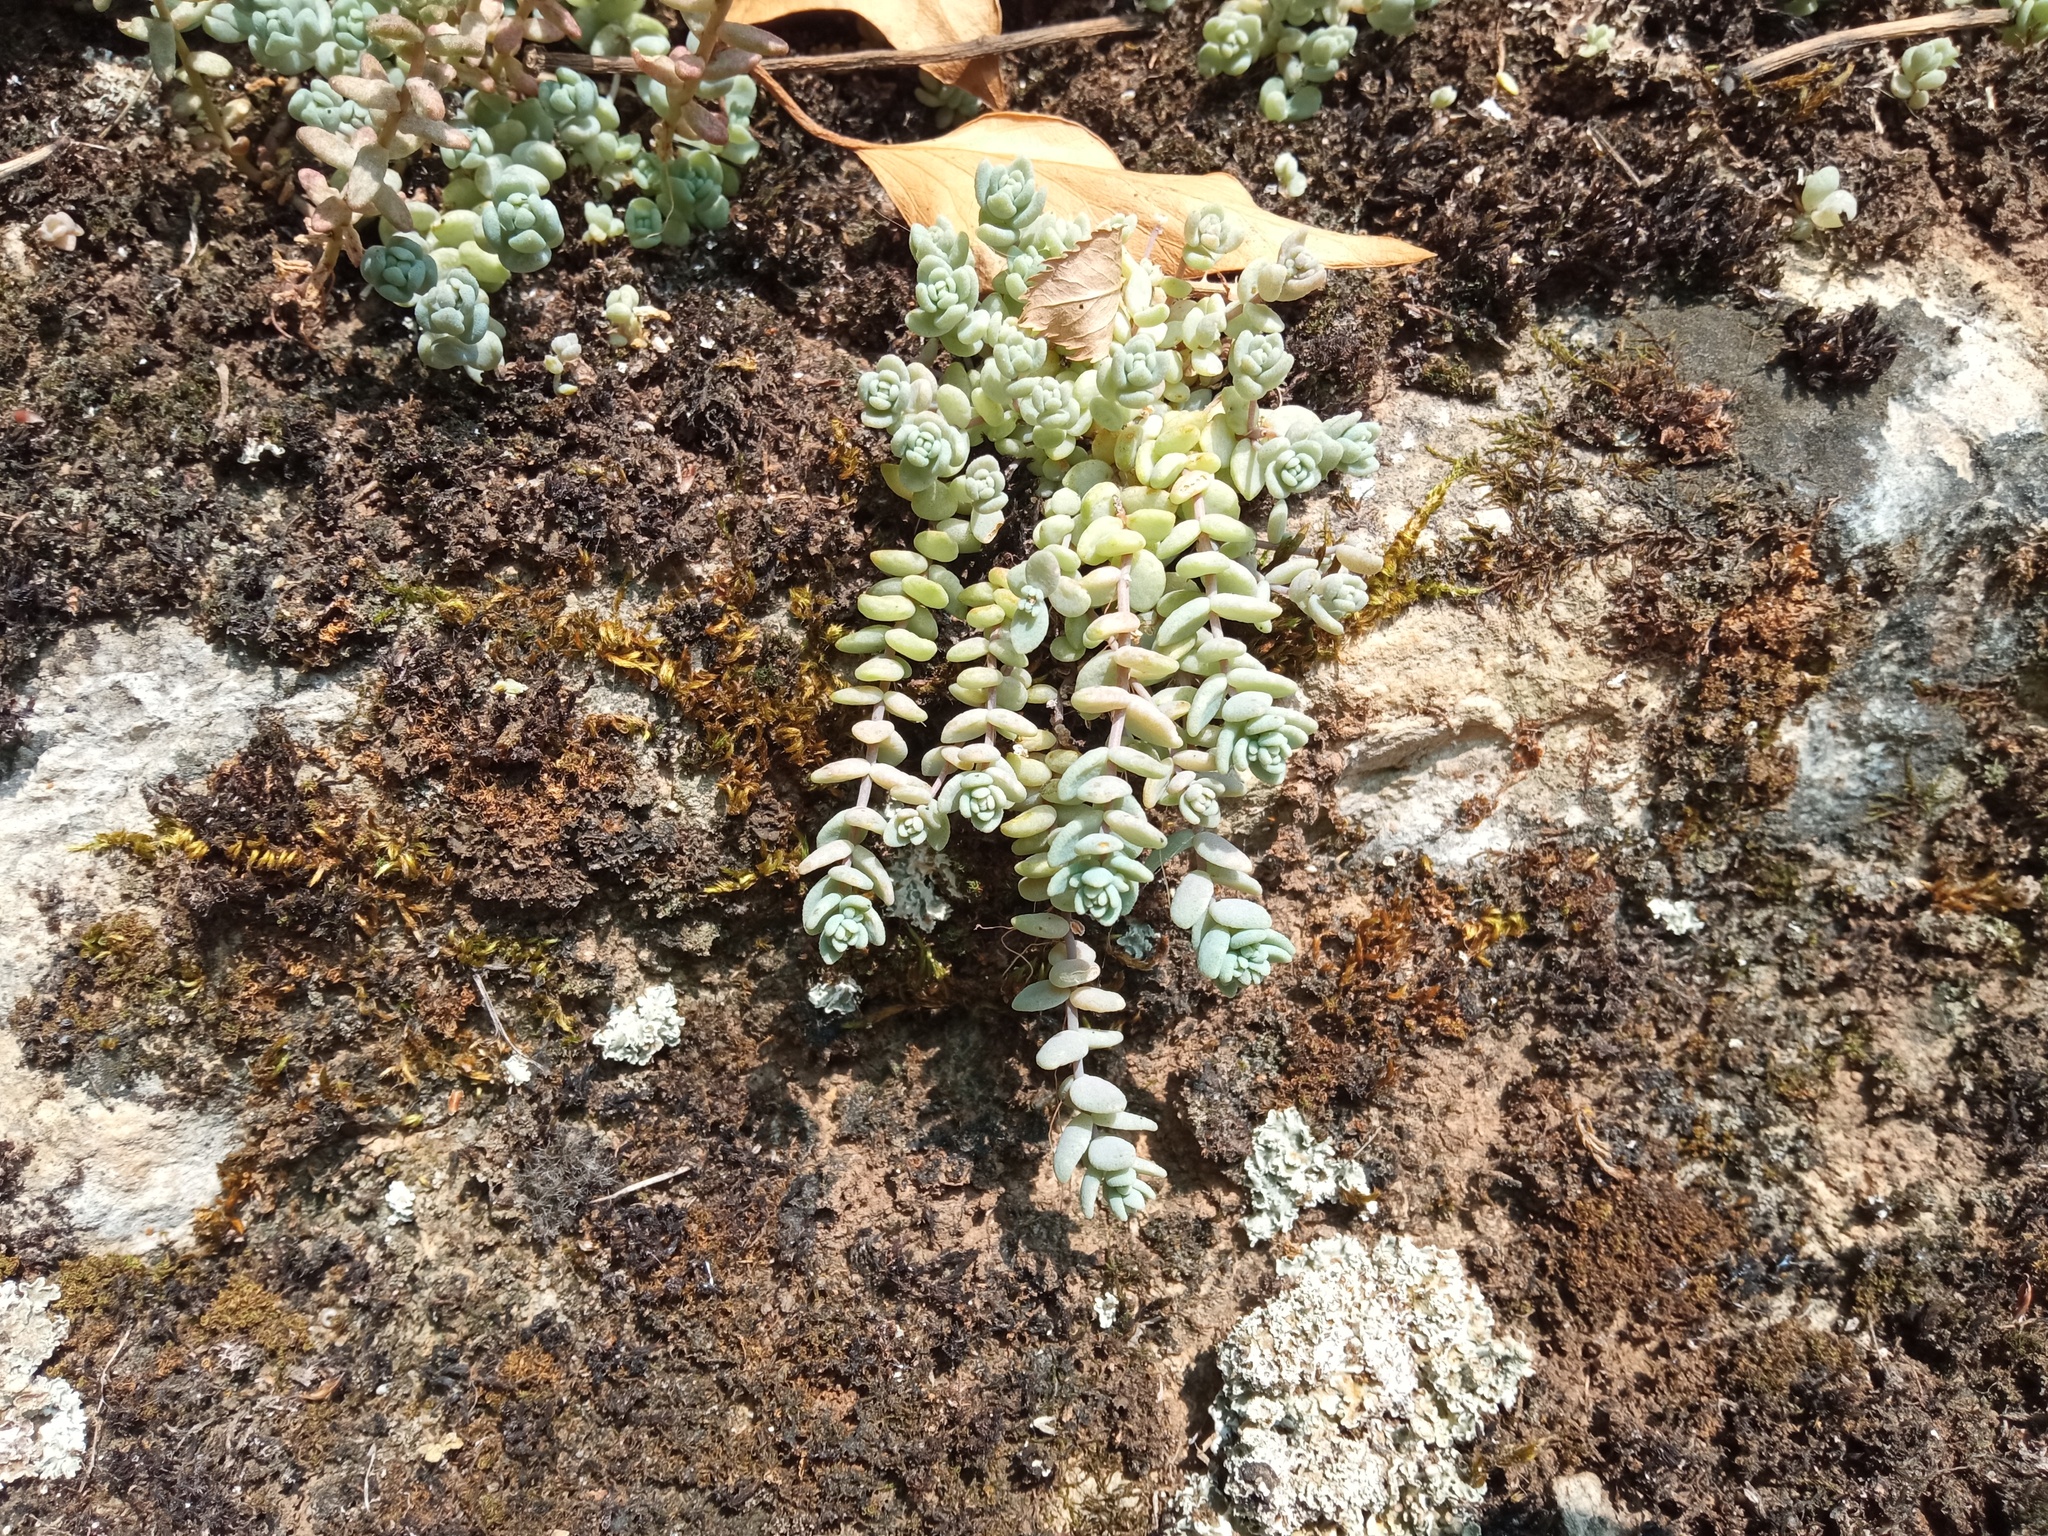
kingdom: Plantae
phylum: Tracheophyta
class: Magnoliopsida
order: Saxifragales
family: Crassulaceae
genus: Sedum
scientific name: Sedum dasyphyllum
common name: Thick-leaf stonecrop
